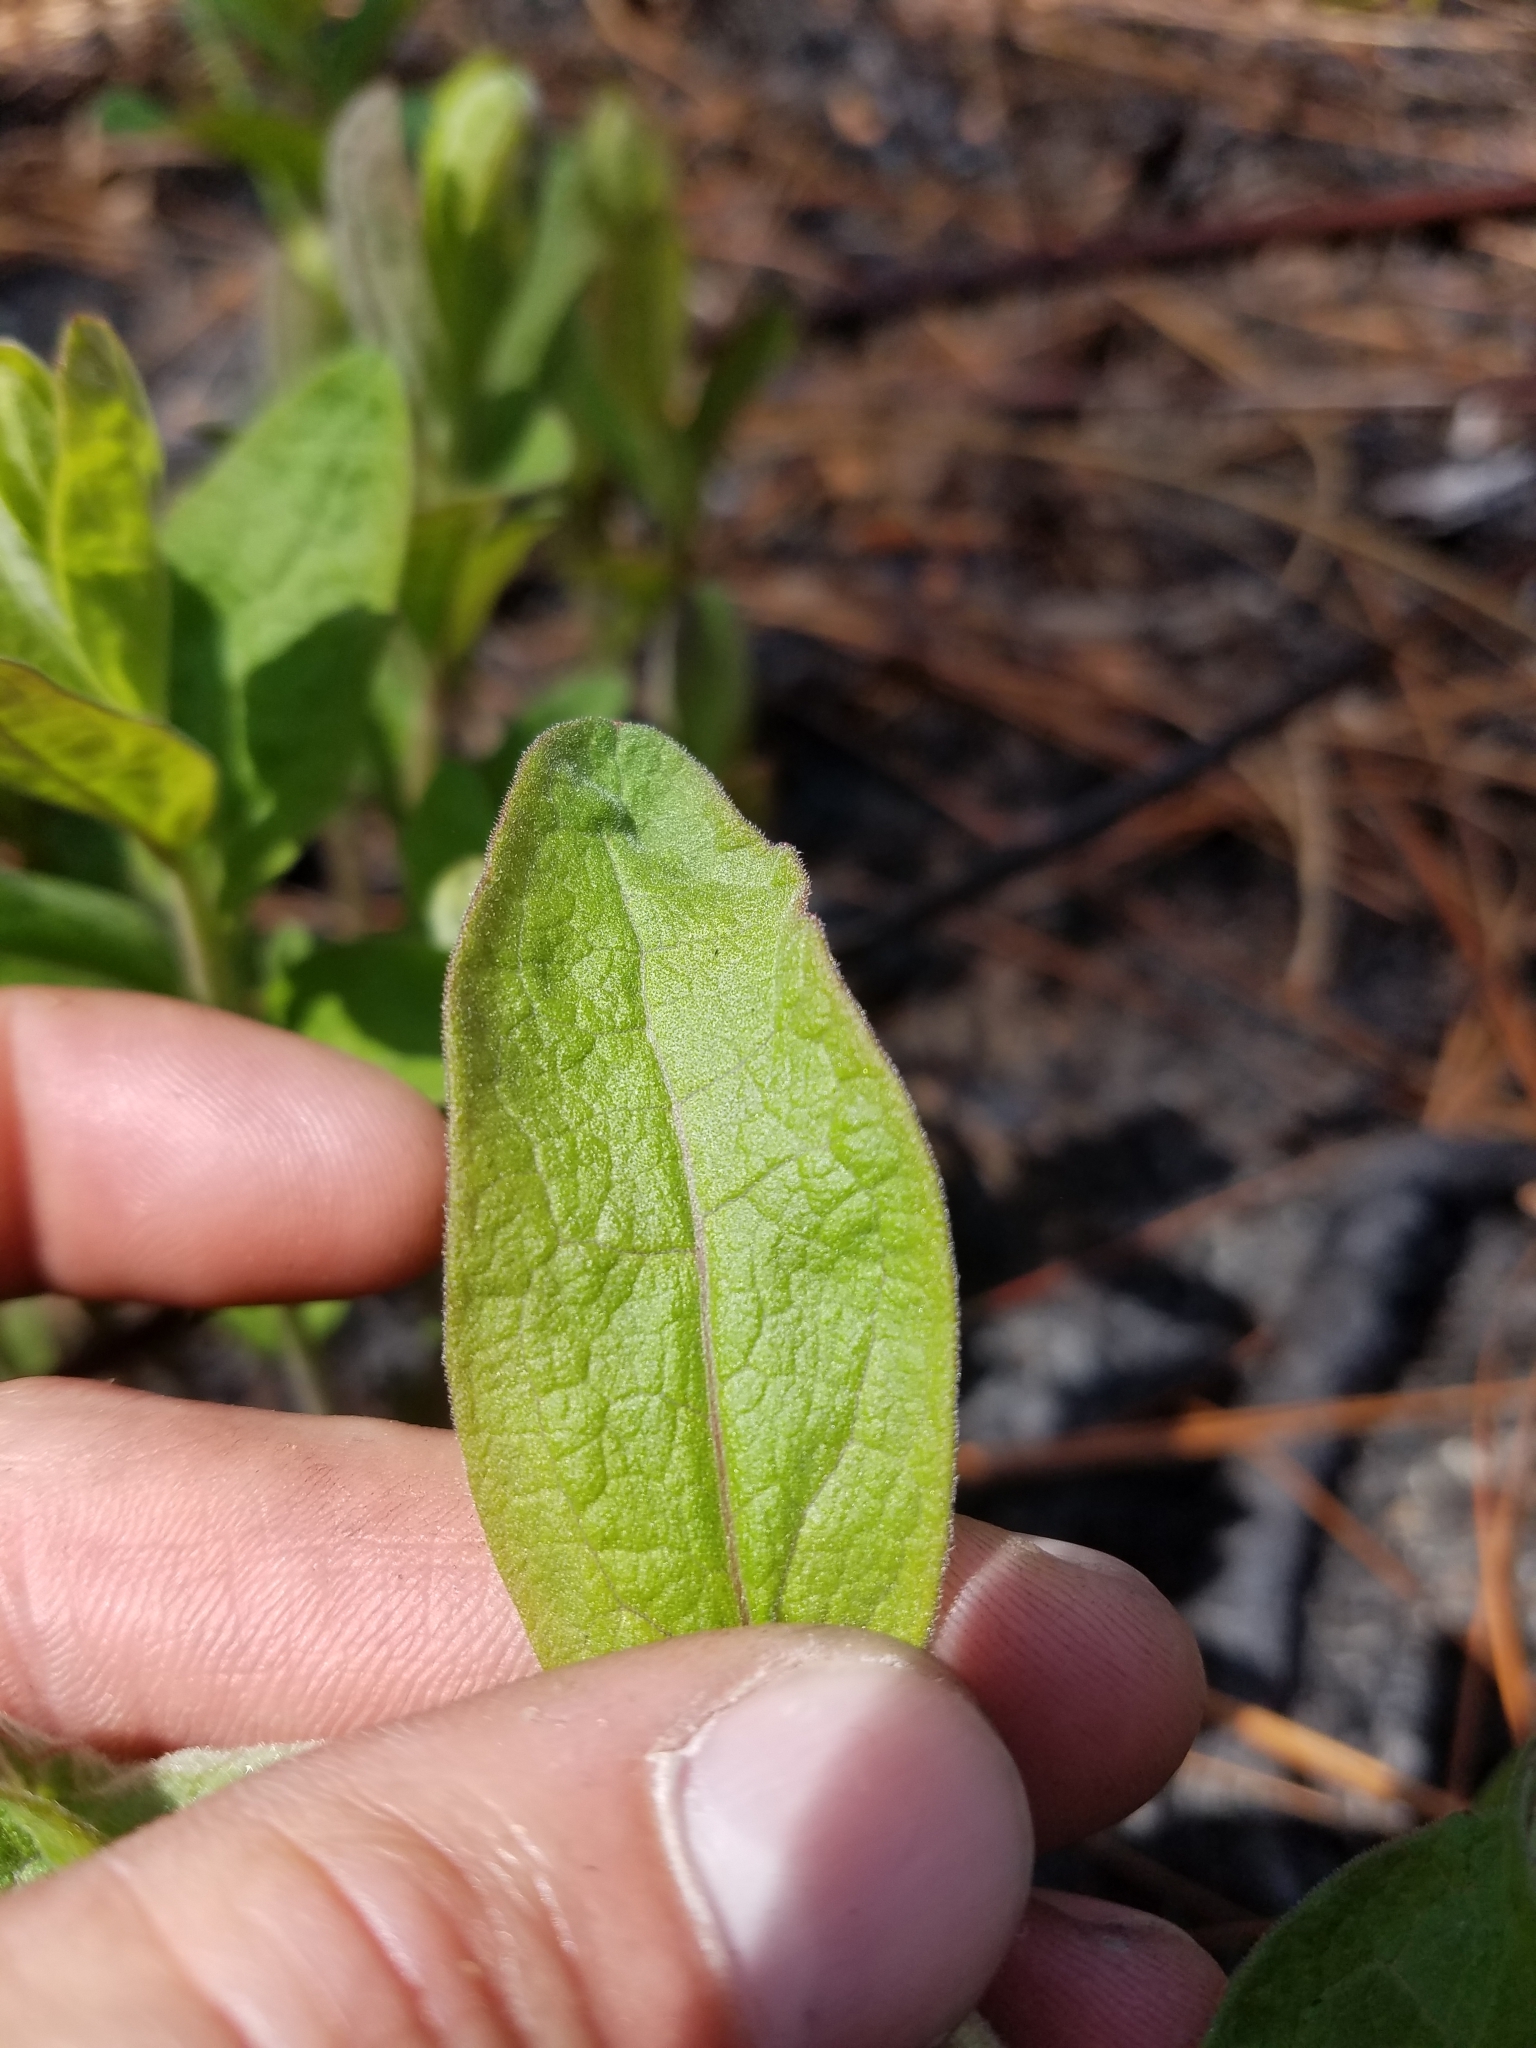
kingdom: Plantae
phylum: Tracheophyta
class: Magnoliopsida
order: Asterales
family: Asteraceae
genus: Oclemena
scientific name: Oclemena reticulata
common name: Pinebarren aster
